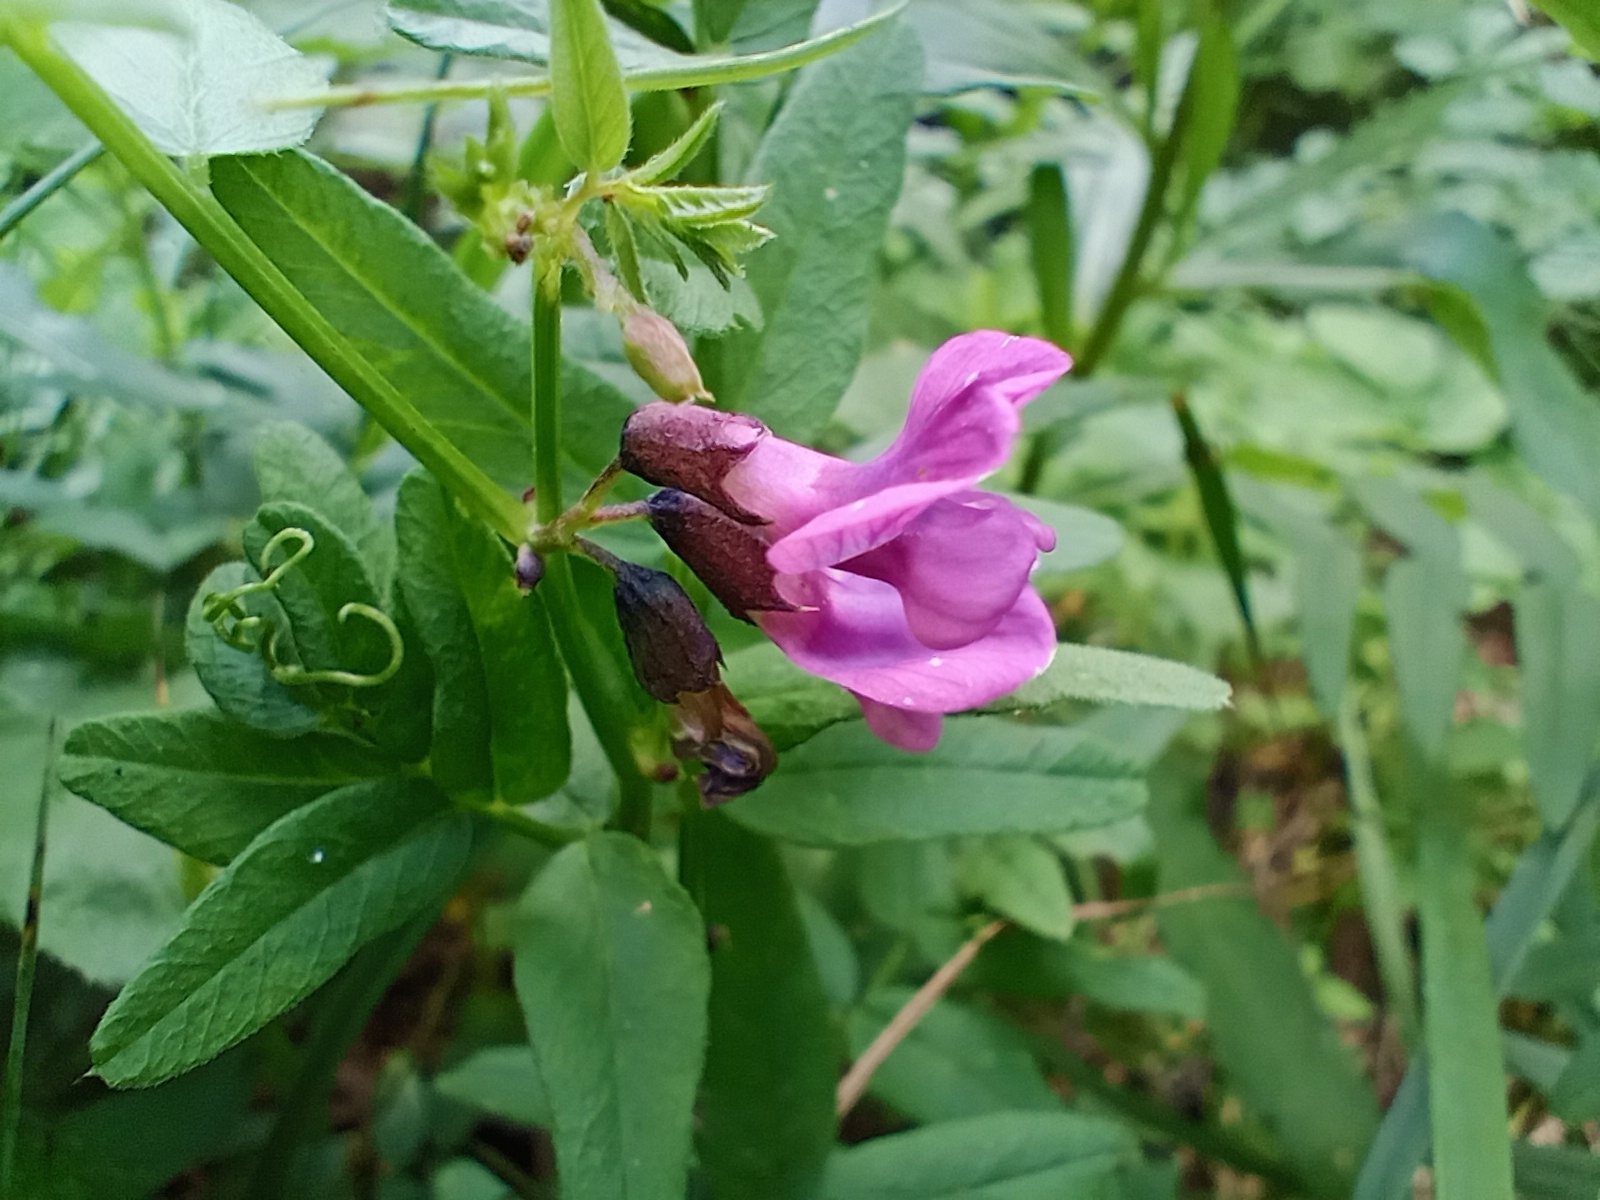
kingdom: Plantae
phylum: Tracheophyta
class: Magnoliopsida
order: Fabales
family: Fabaceae
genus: Vicia
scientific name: Vicia sepium
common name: Bush vetch
